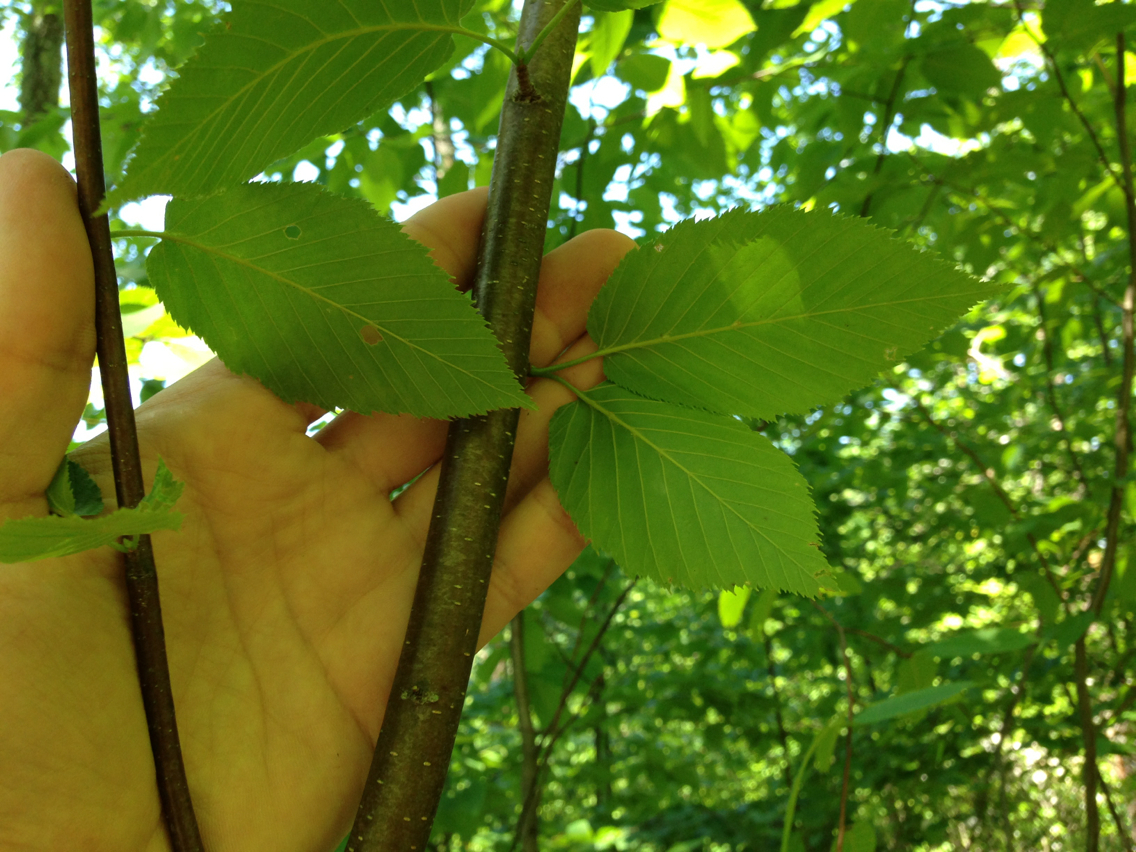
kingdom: Plantae
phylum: Tracheophyta
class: Magnoliopsida
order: Fagales
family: Betulaceae
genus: Betula
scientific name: Betula lenta
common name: Black birch
